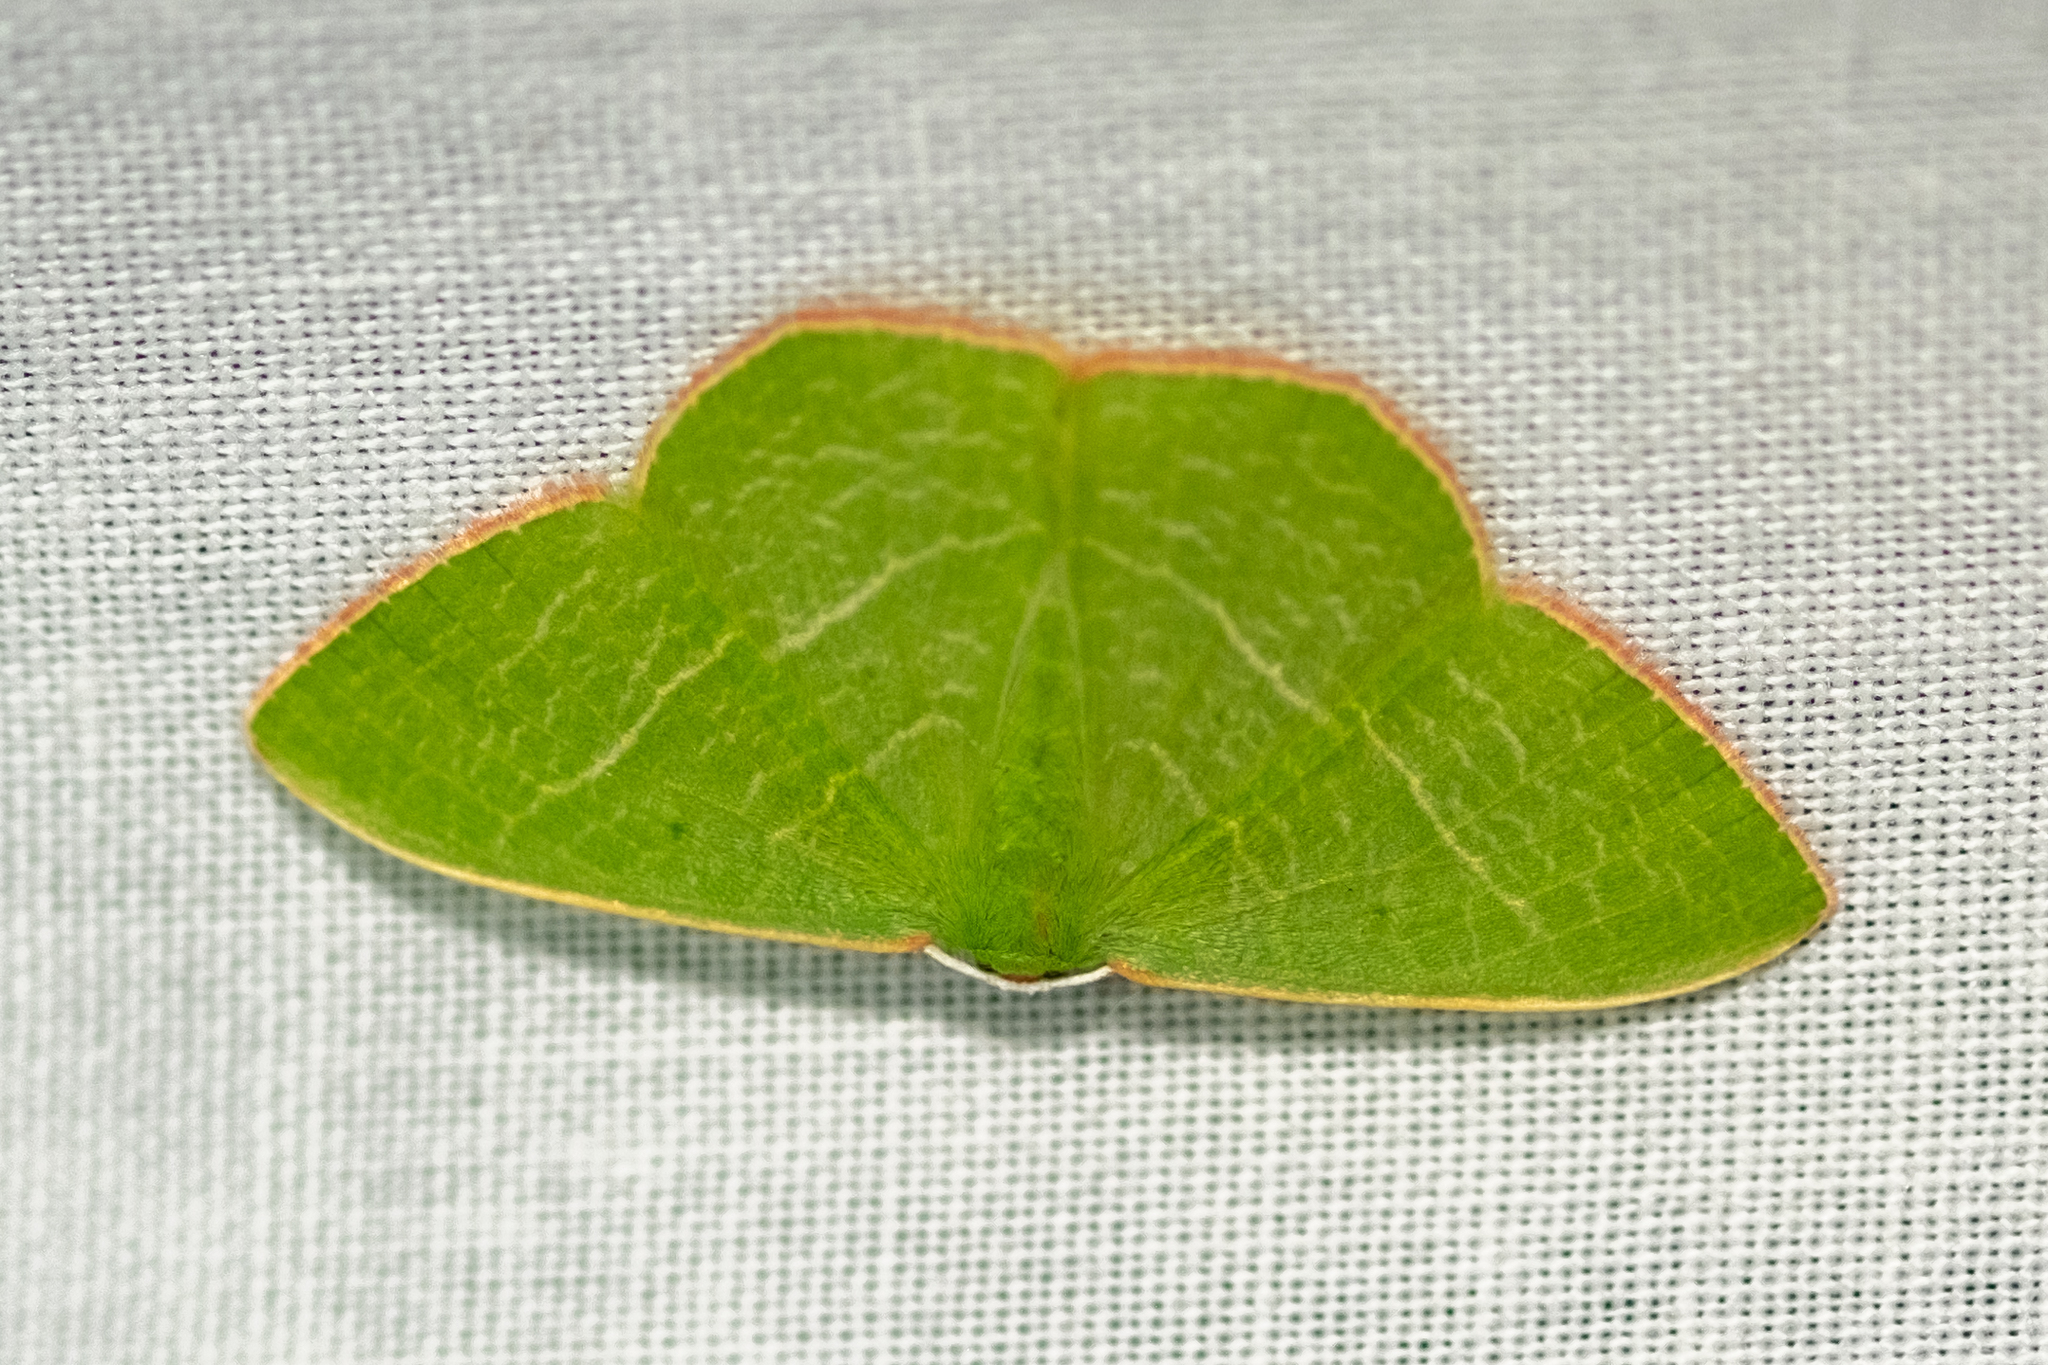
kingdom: Animalia
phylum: Arthropoda
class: Insecta
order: Lepidoptera
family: Geometridae
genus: Nemoria
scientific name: Nemoria leptalea
